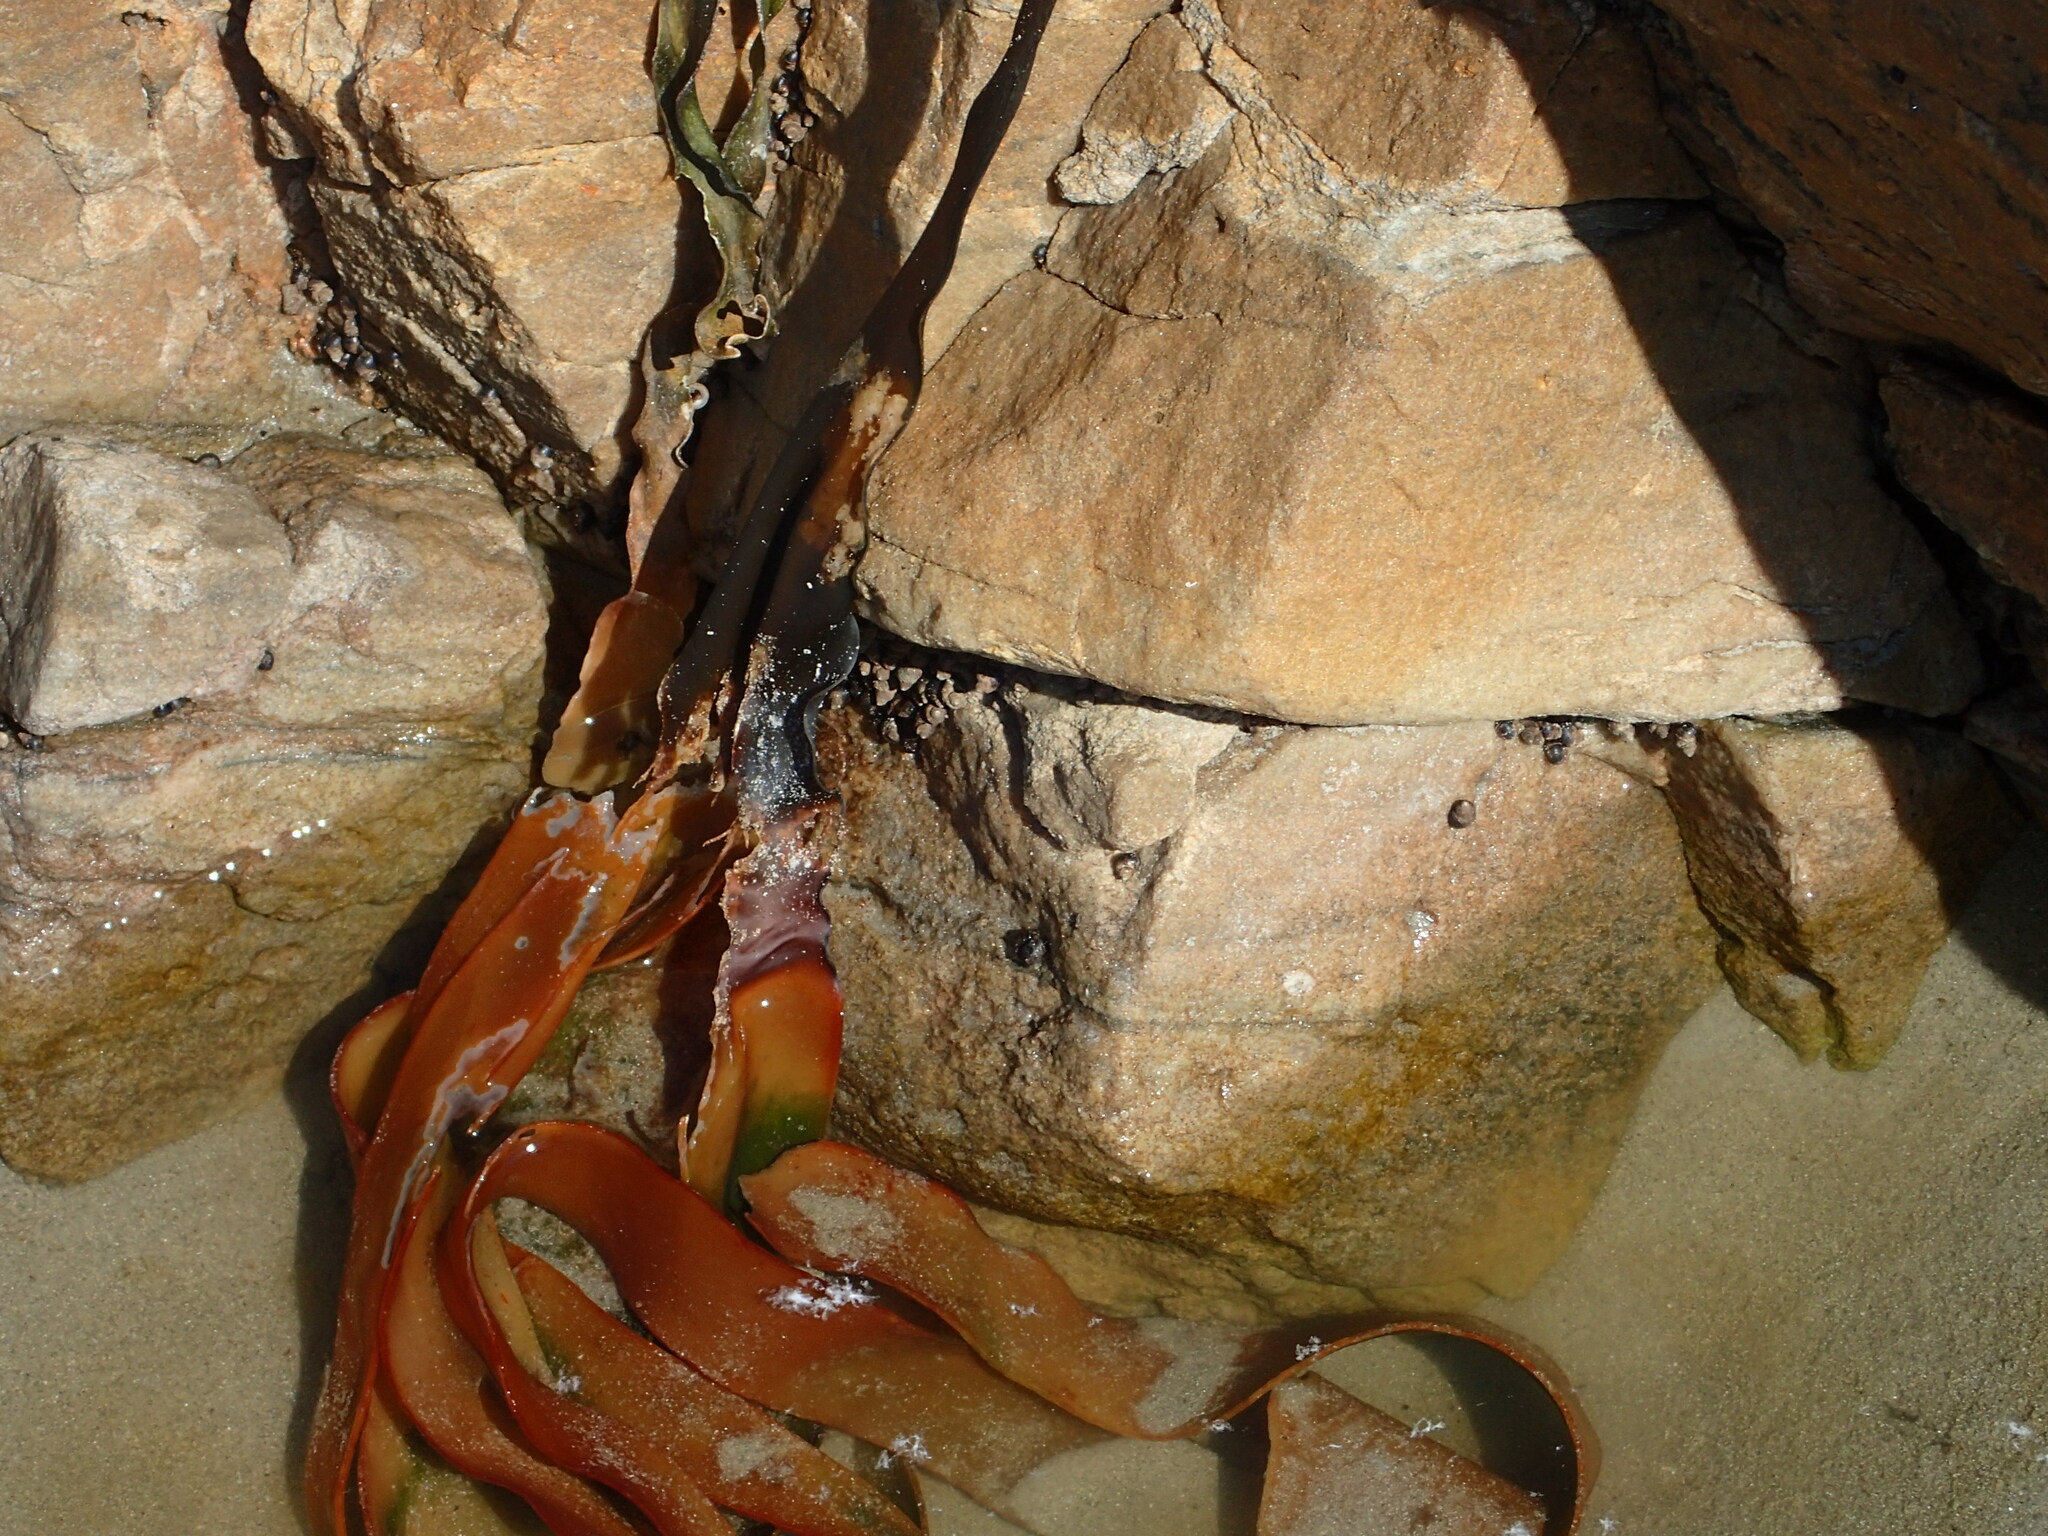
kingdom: Chromista
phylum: Ochrophyta
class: Phaeophyceae
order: Laminariales
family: Lessoniaceae
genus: Ecklonia
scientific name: Ecklonia
